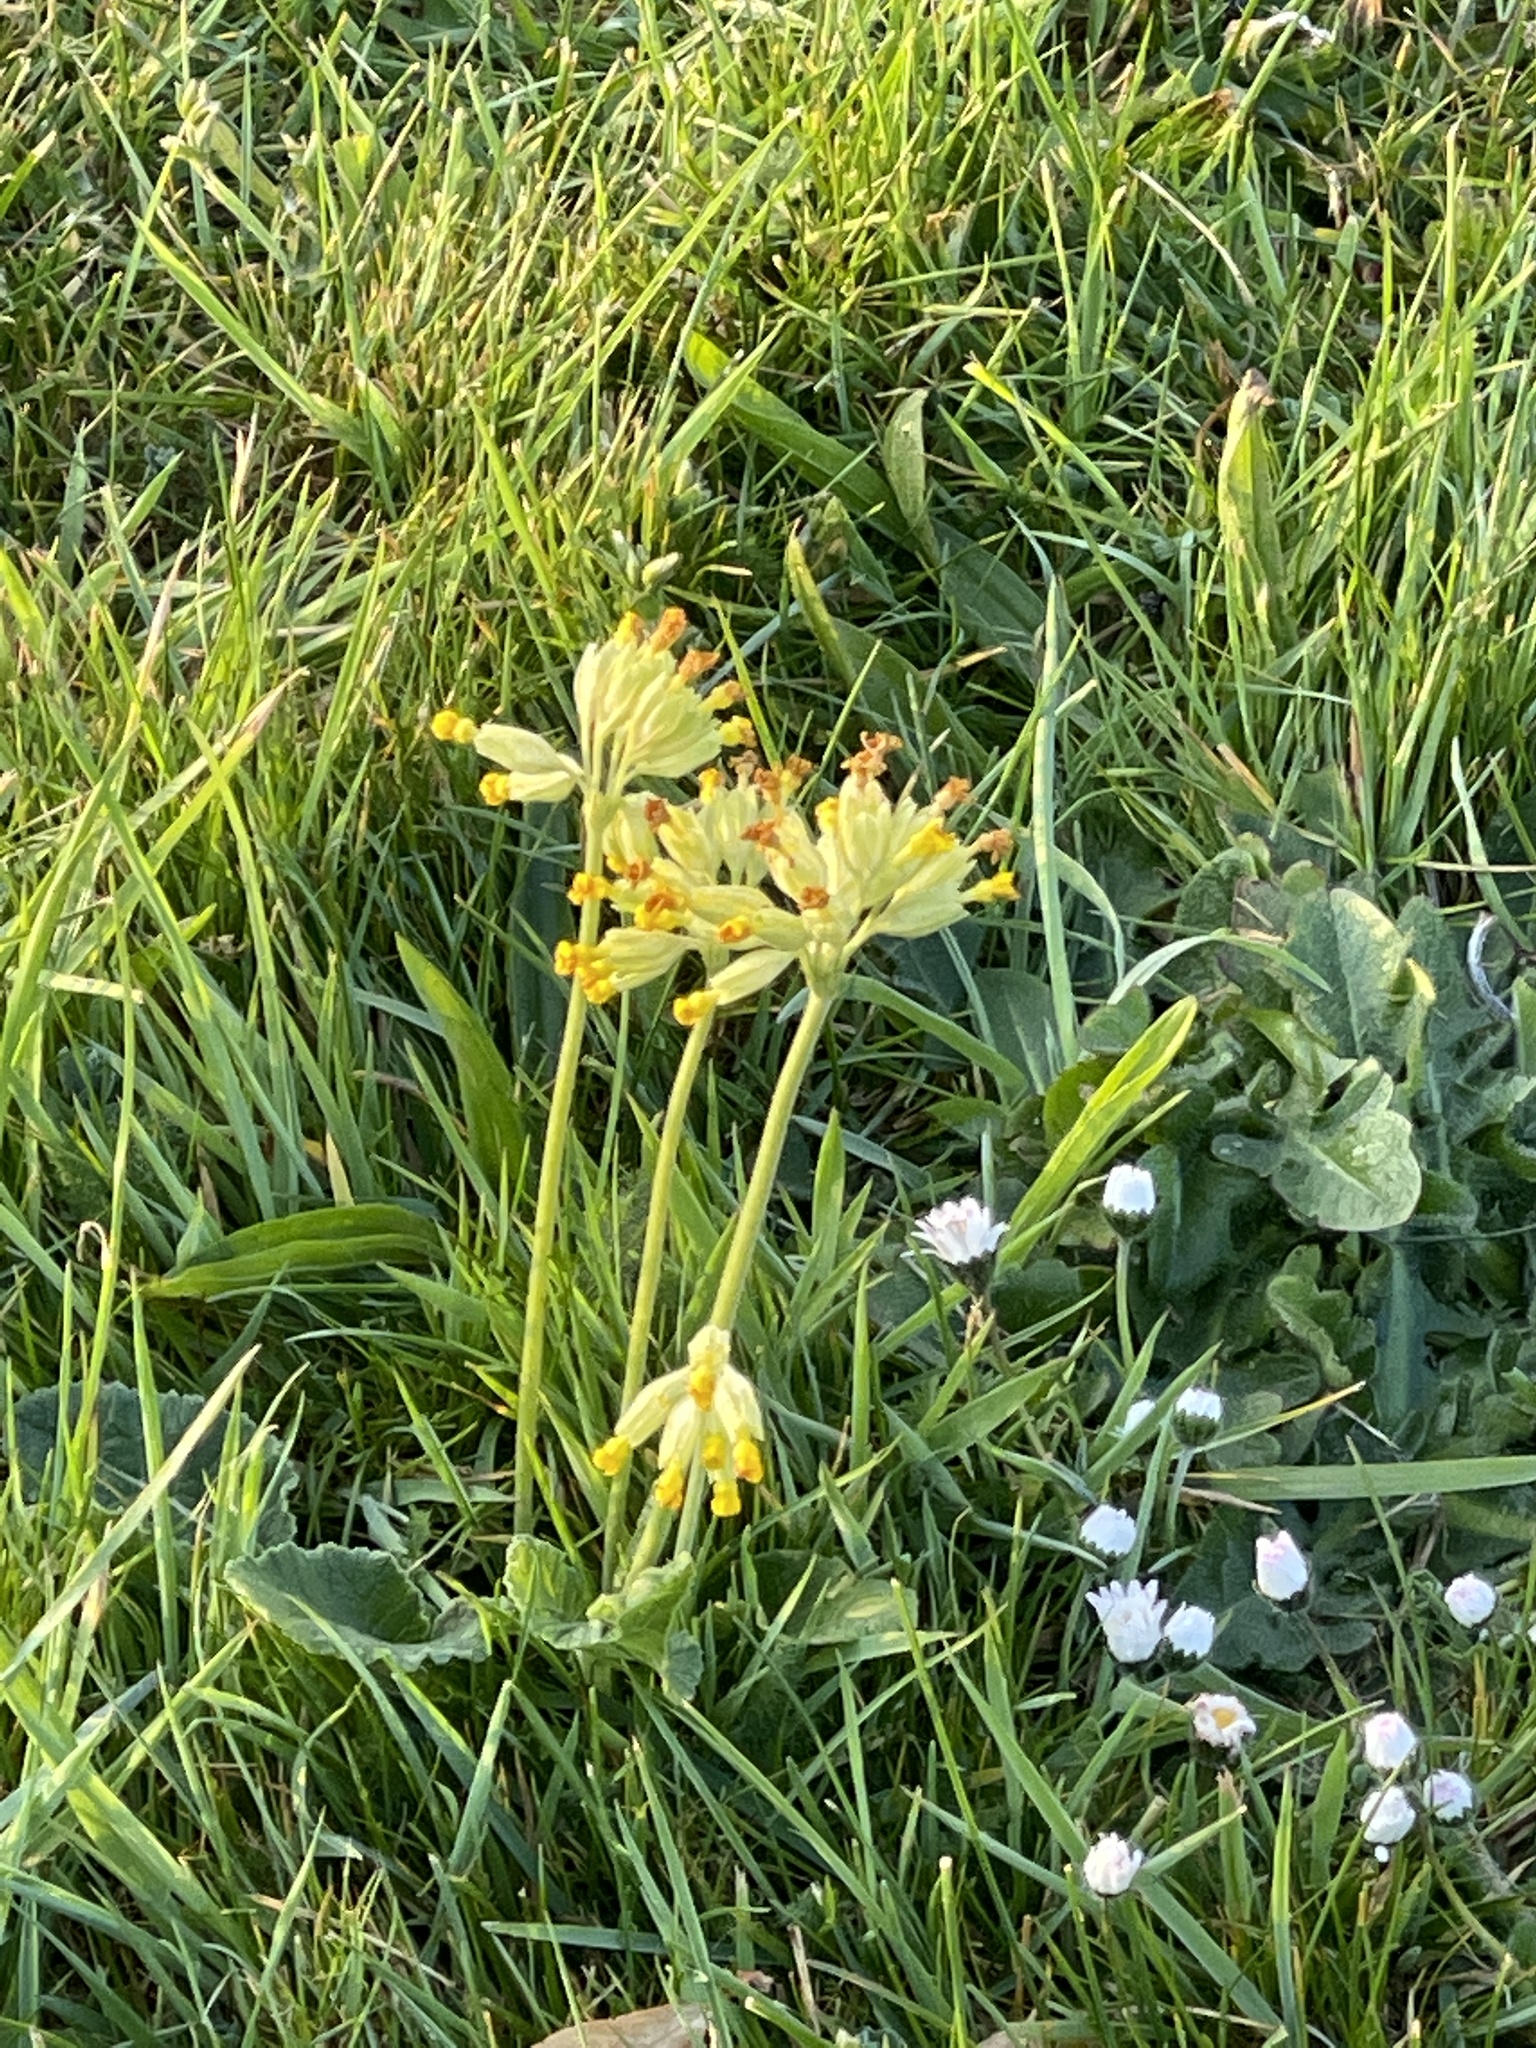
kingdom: Plantae
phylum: Tracheophyta
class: Magnoliopsida
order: Ericales
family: Primulaceae
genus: Primula
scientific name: Primula veris
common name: Cowslip
